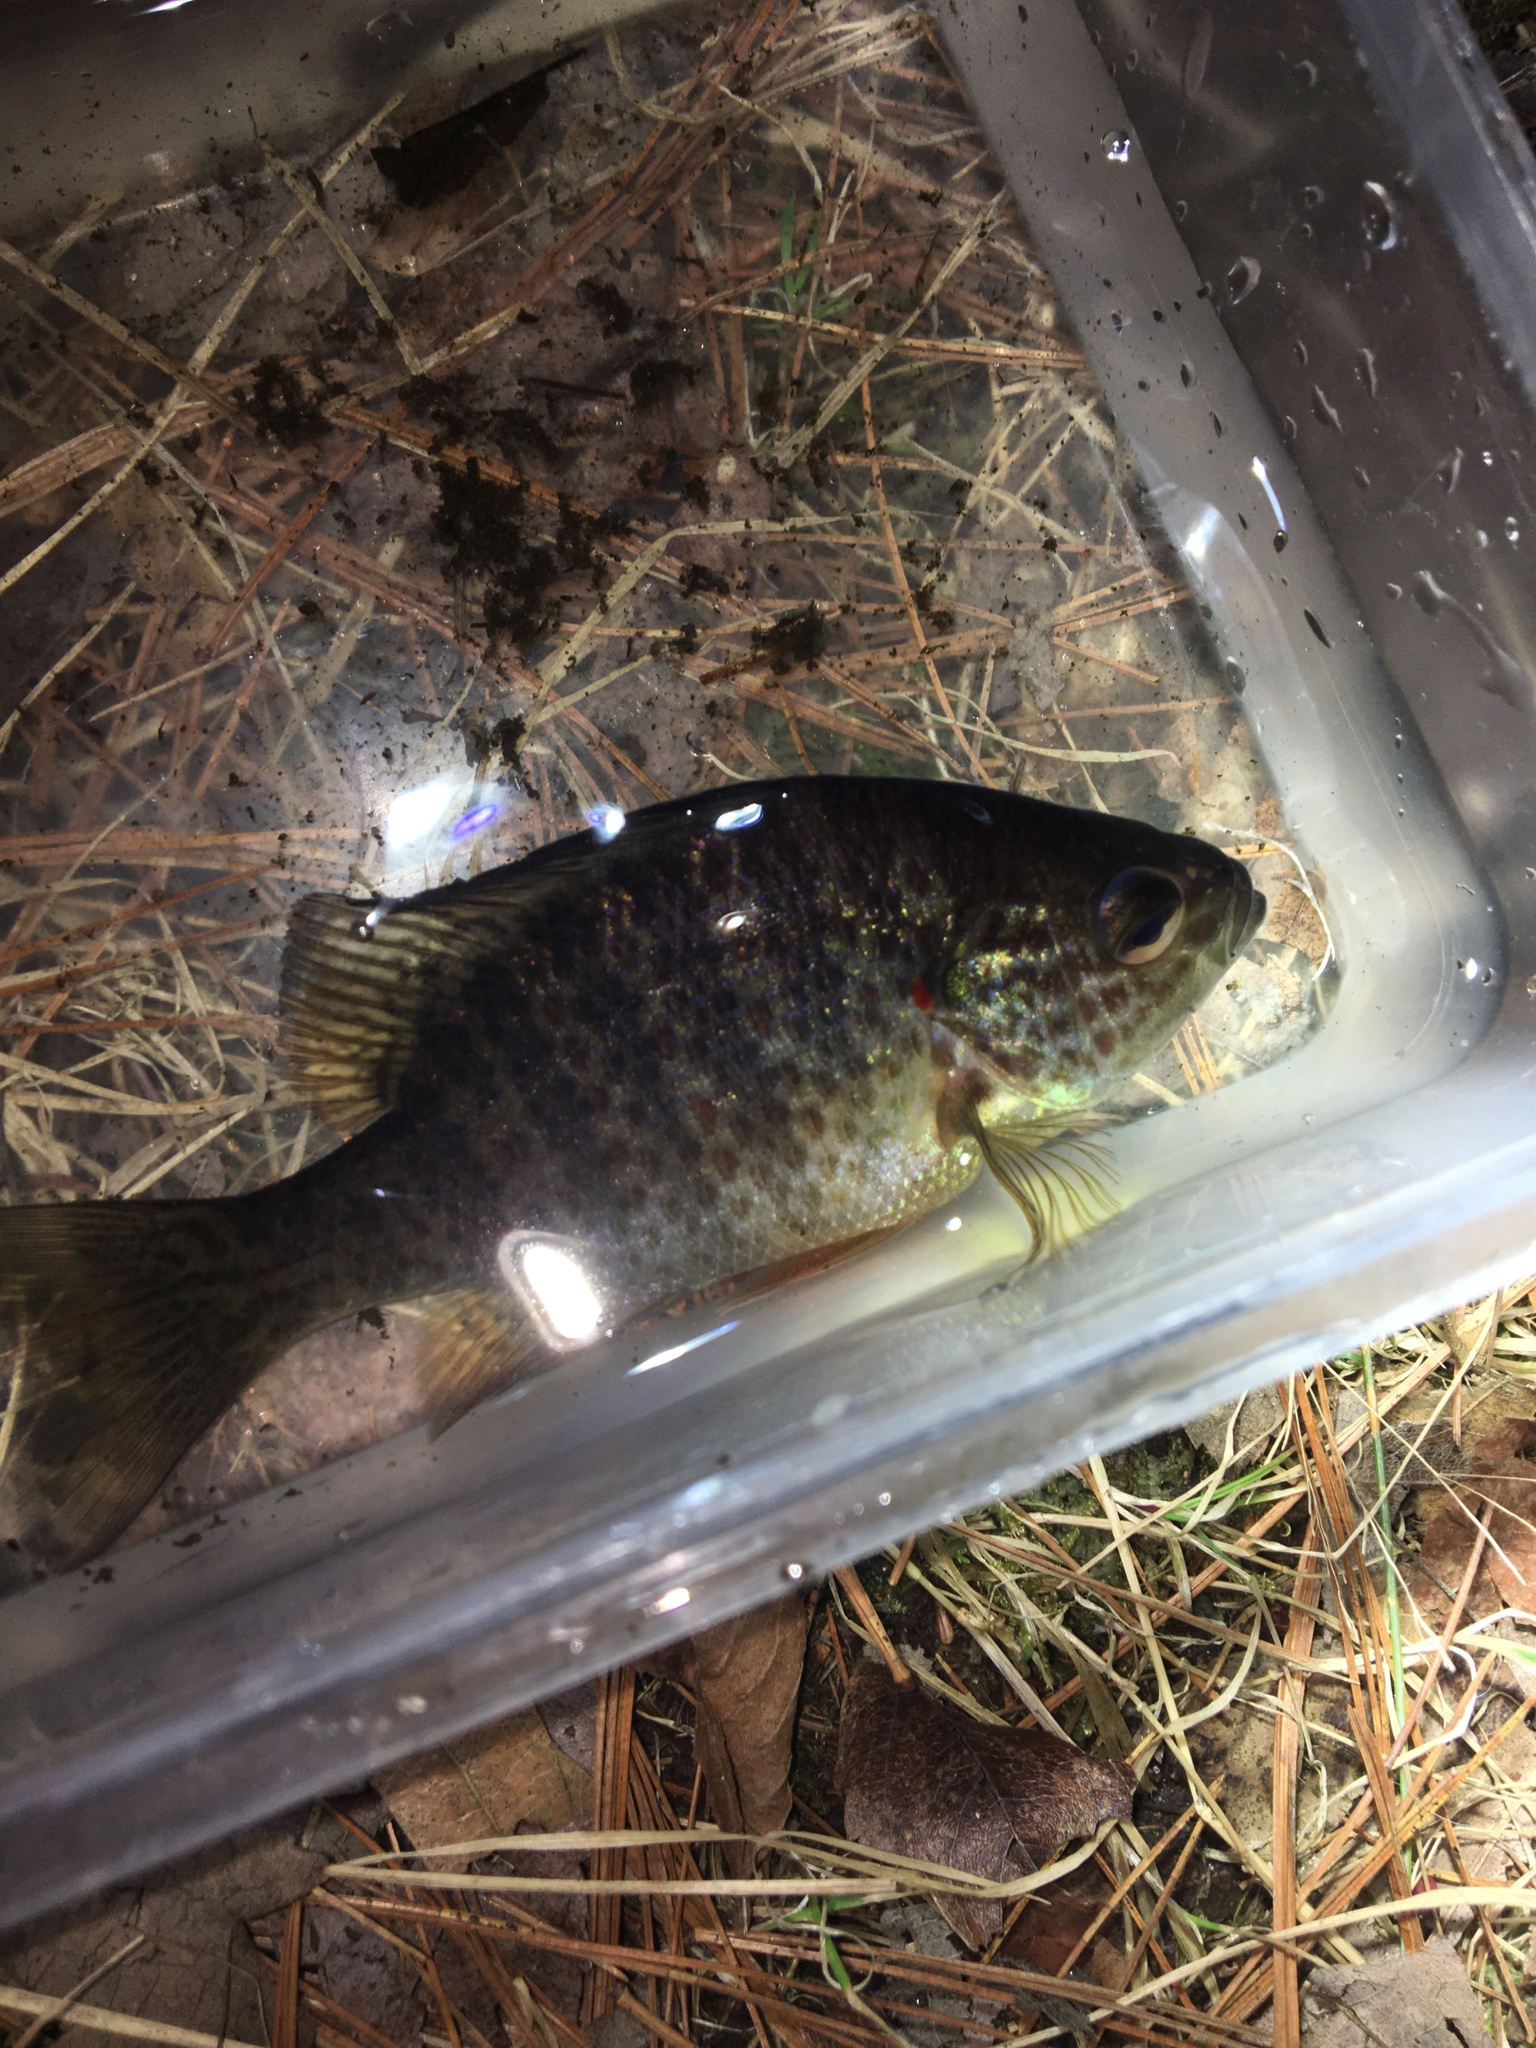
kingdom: Animalia
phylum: Chordata
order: Perciformes
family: Centrarchidae
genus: Lepomis
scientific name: Lepomis gibbosus
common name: Pumpkinseed
